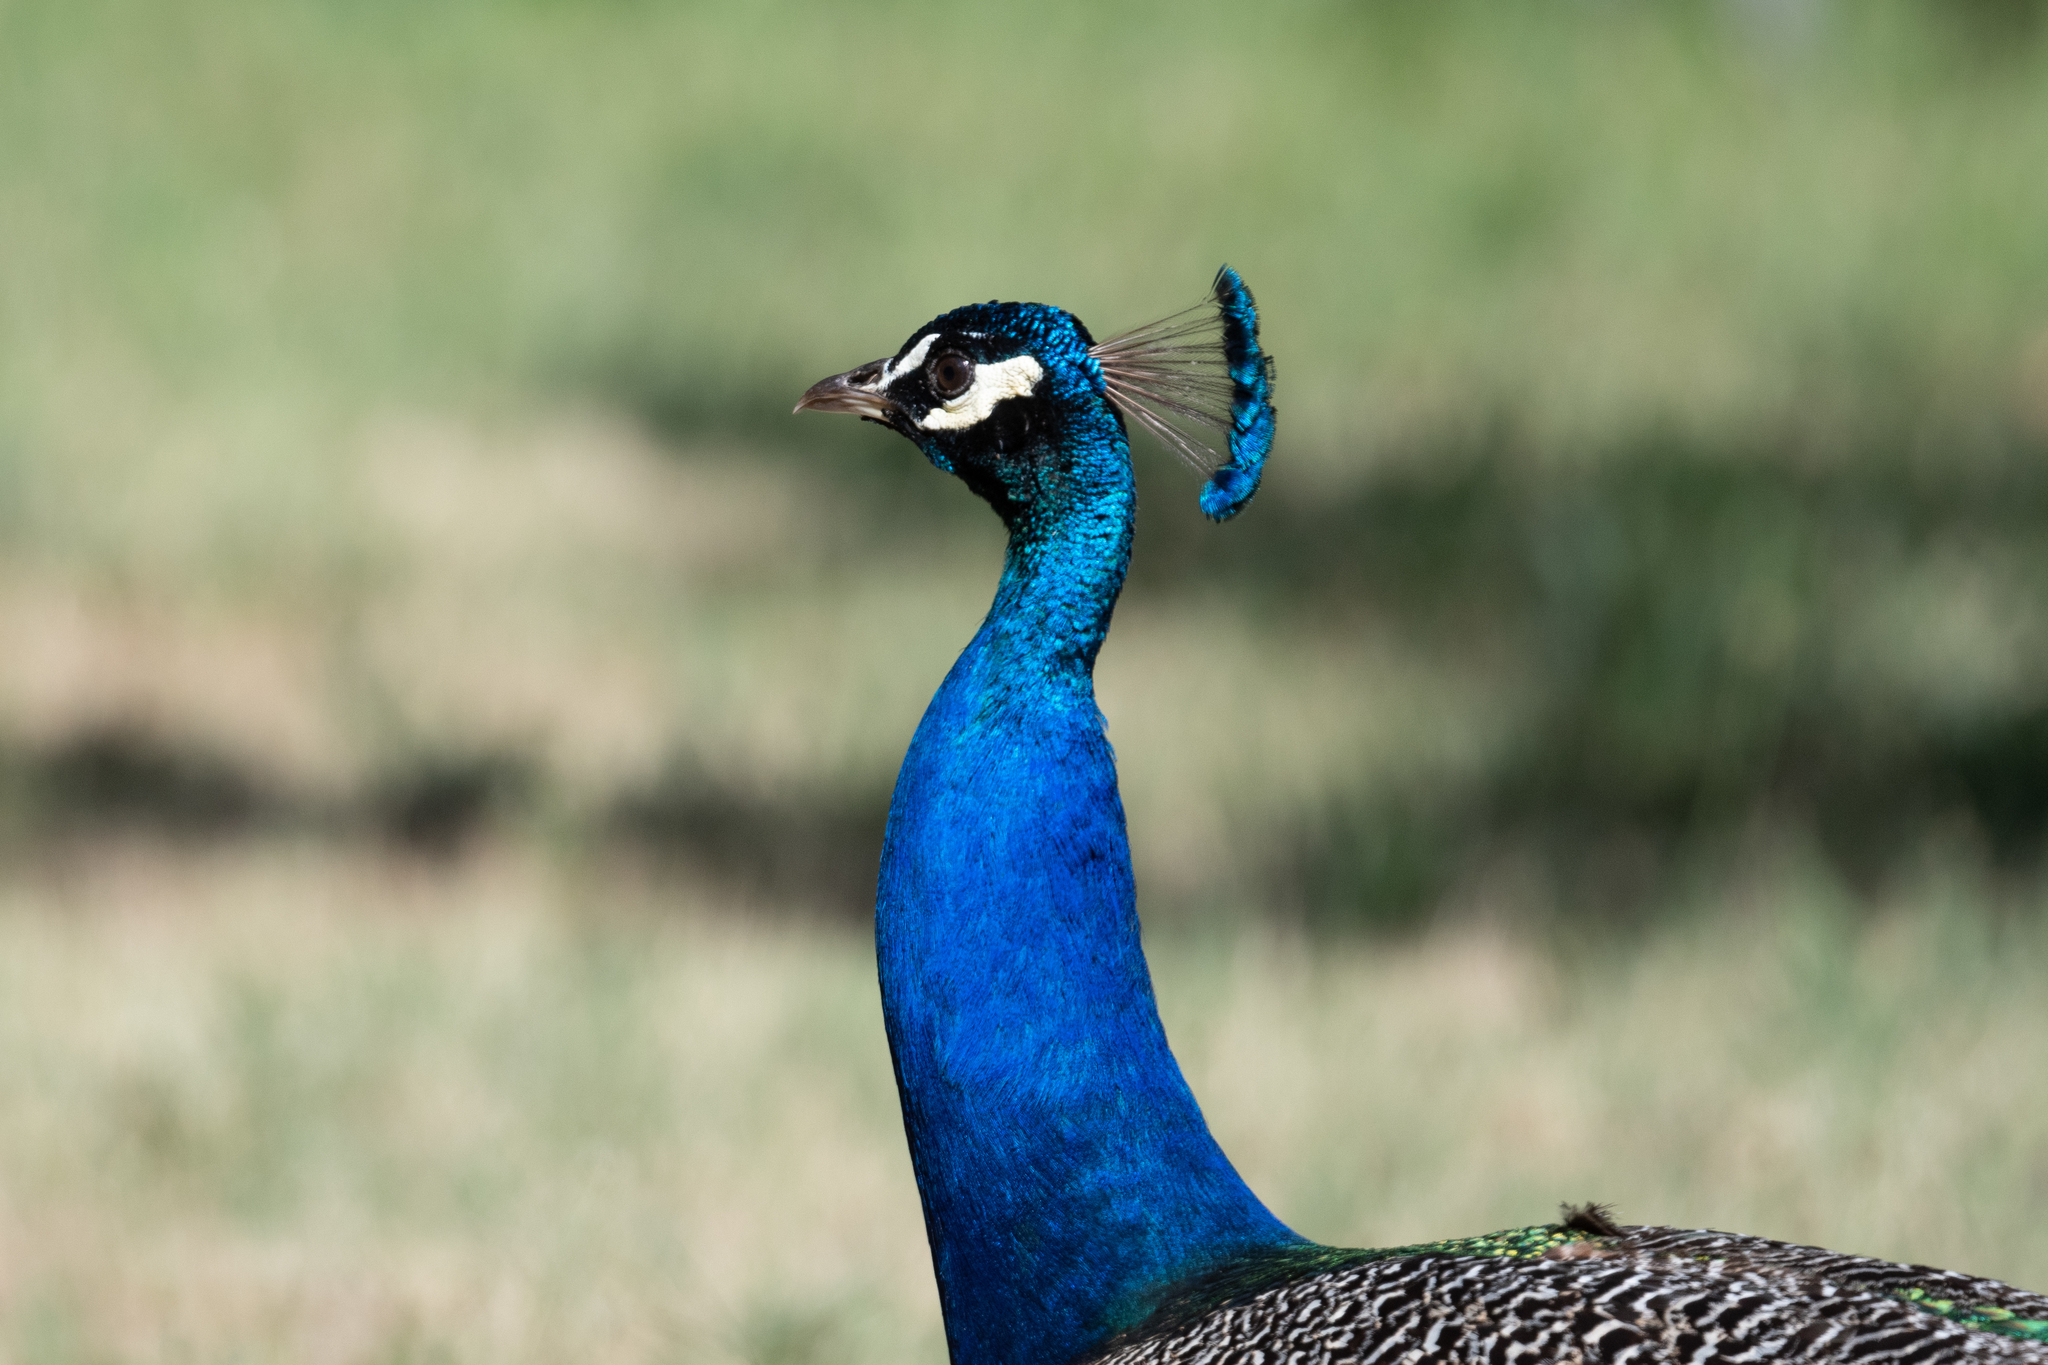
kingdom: Animalia
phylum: Chordata
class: Aves
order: Galliformes
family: Phasianidae
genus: Pavo
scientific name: Pavo cristatus
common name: Indian peafowl
